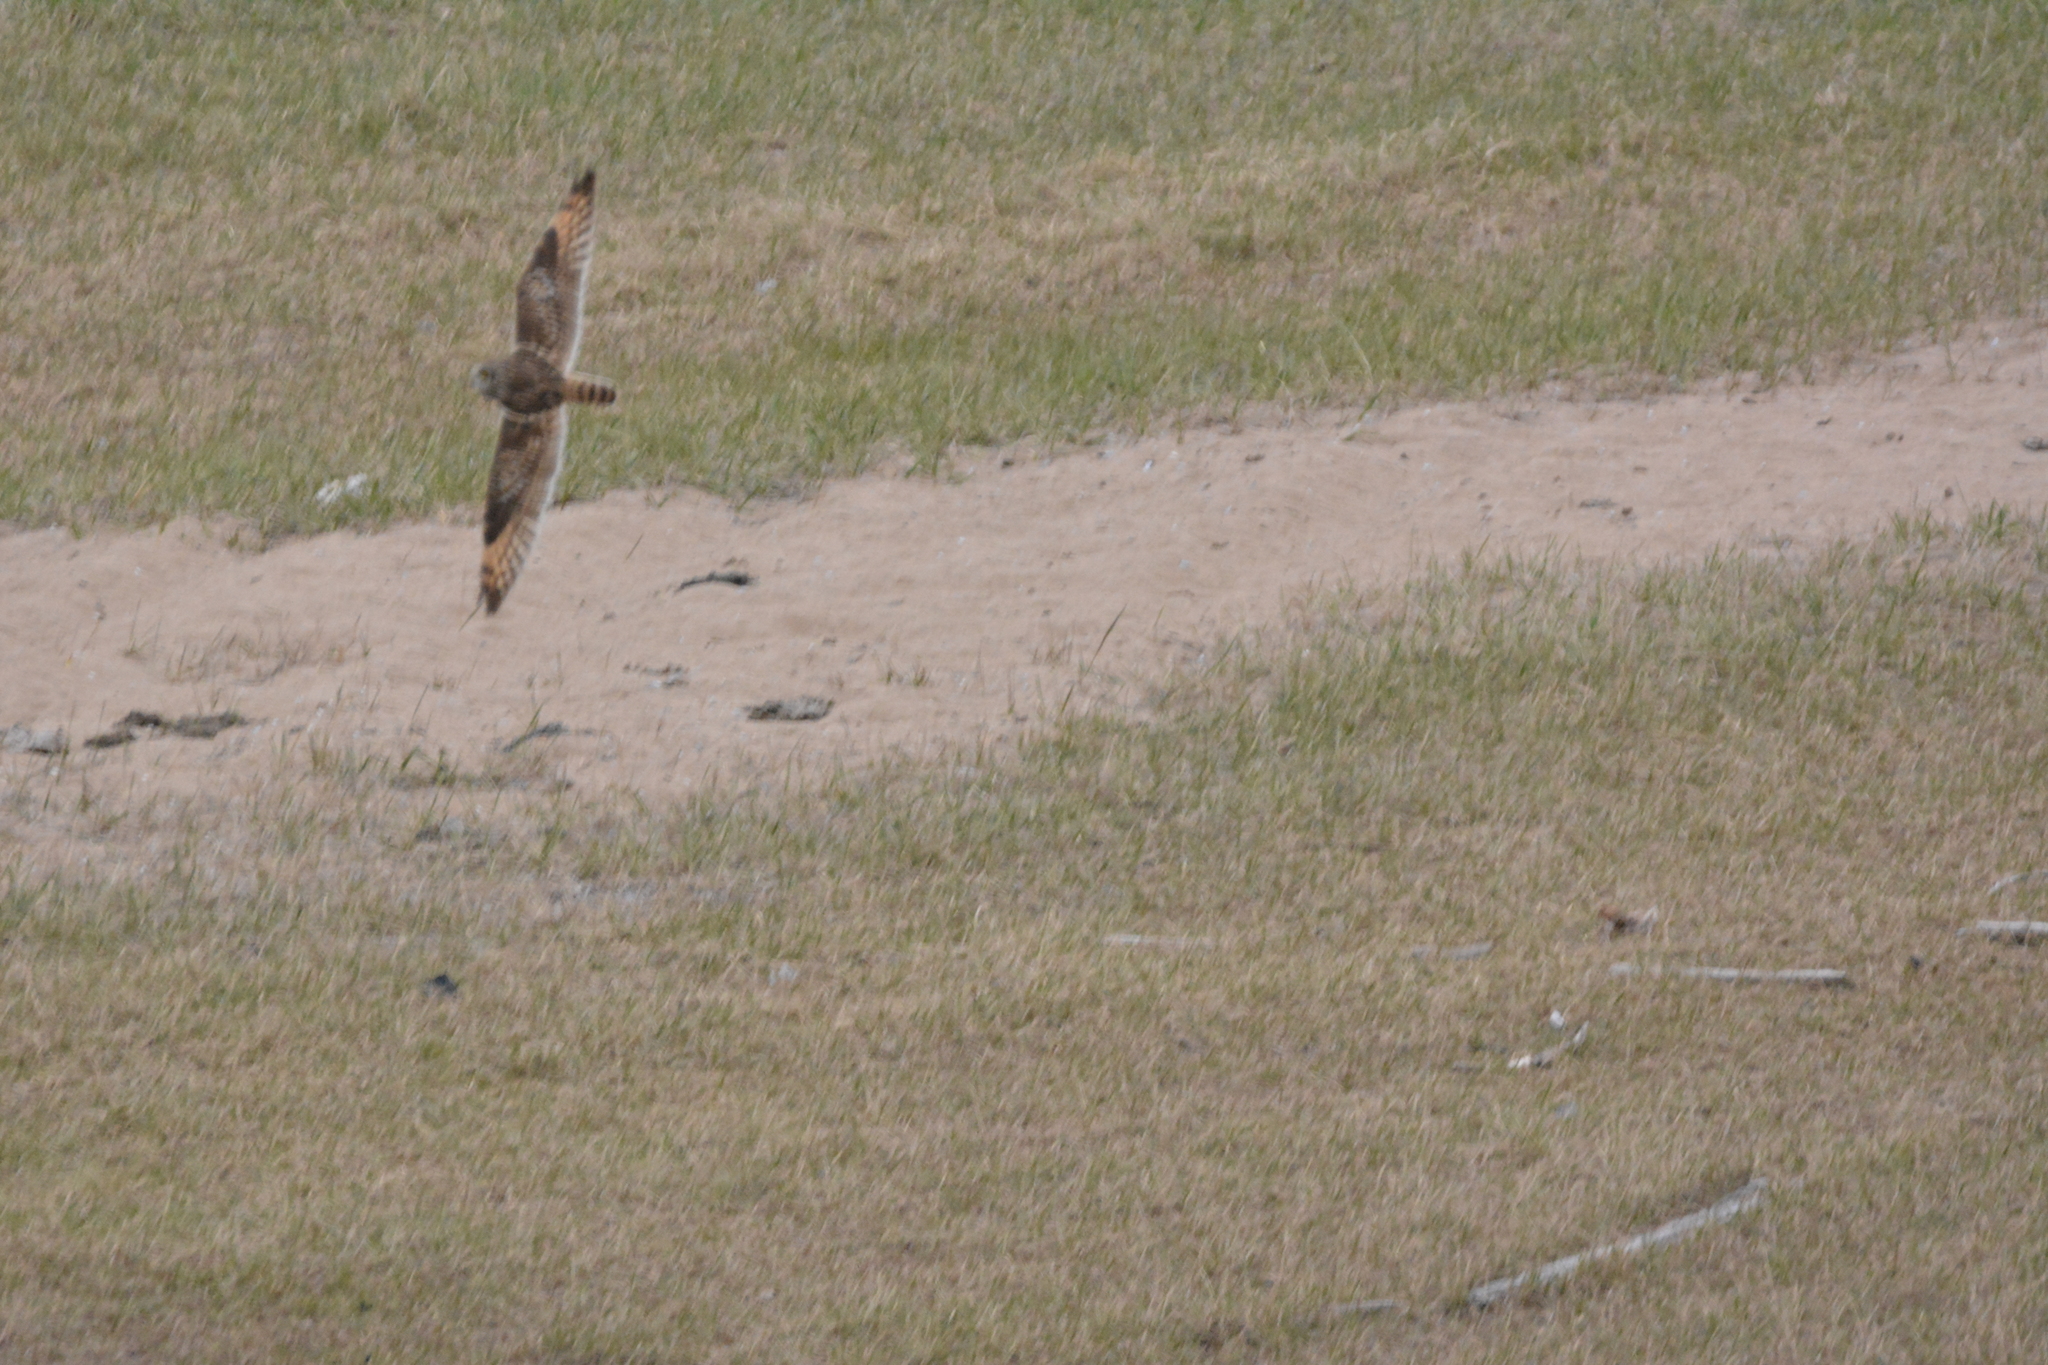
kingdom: Animalia
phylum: Chordata
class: Aves
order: Strigiformes
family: Strigidae
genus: Asio
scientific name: Asio flammeus
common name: Short-eared owl
